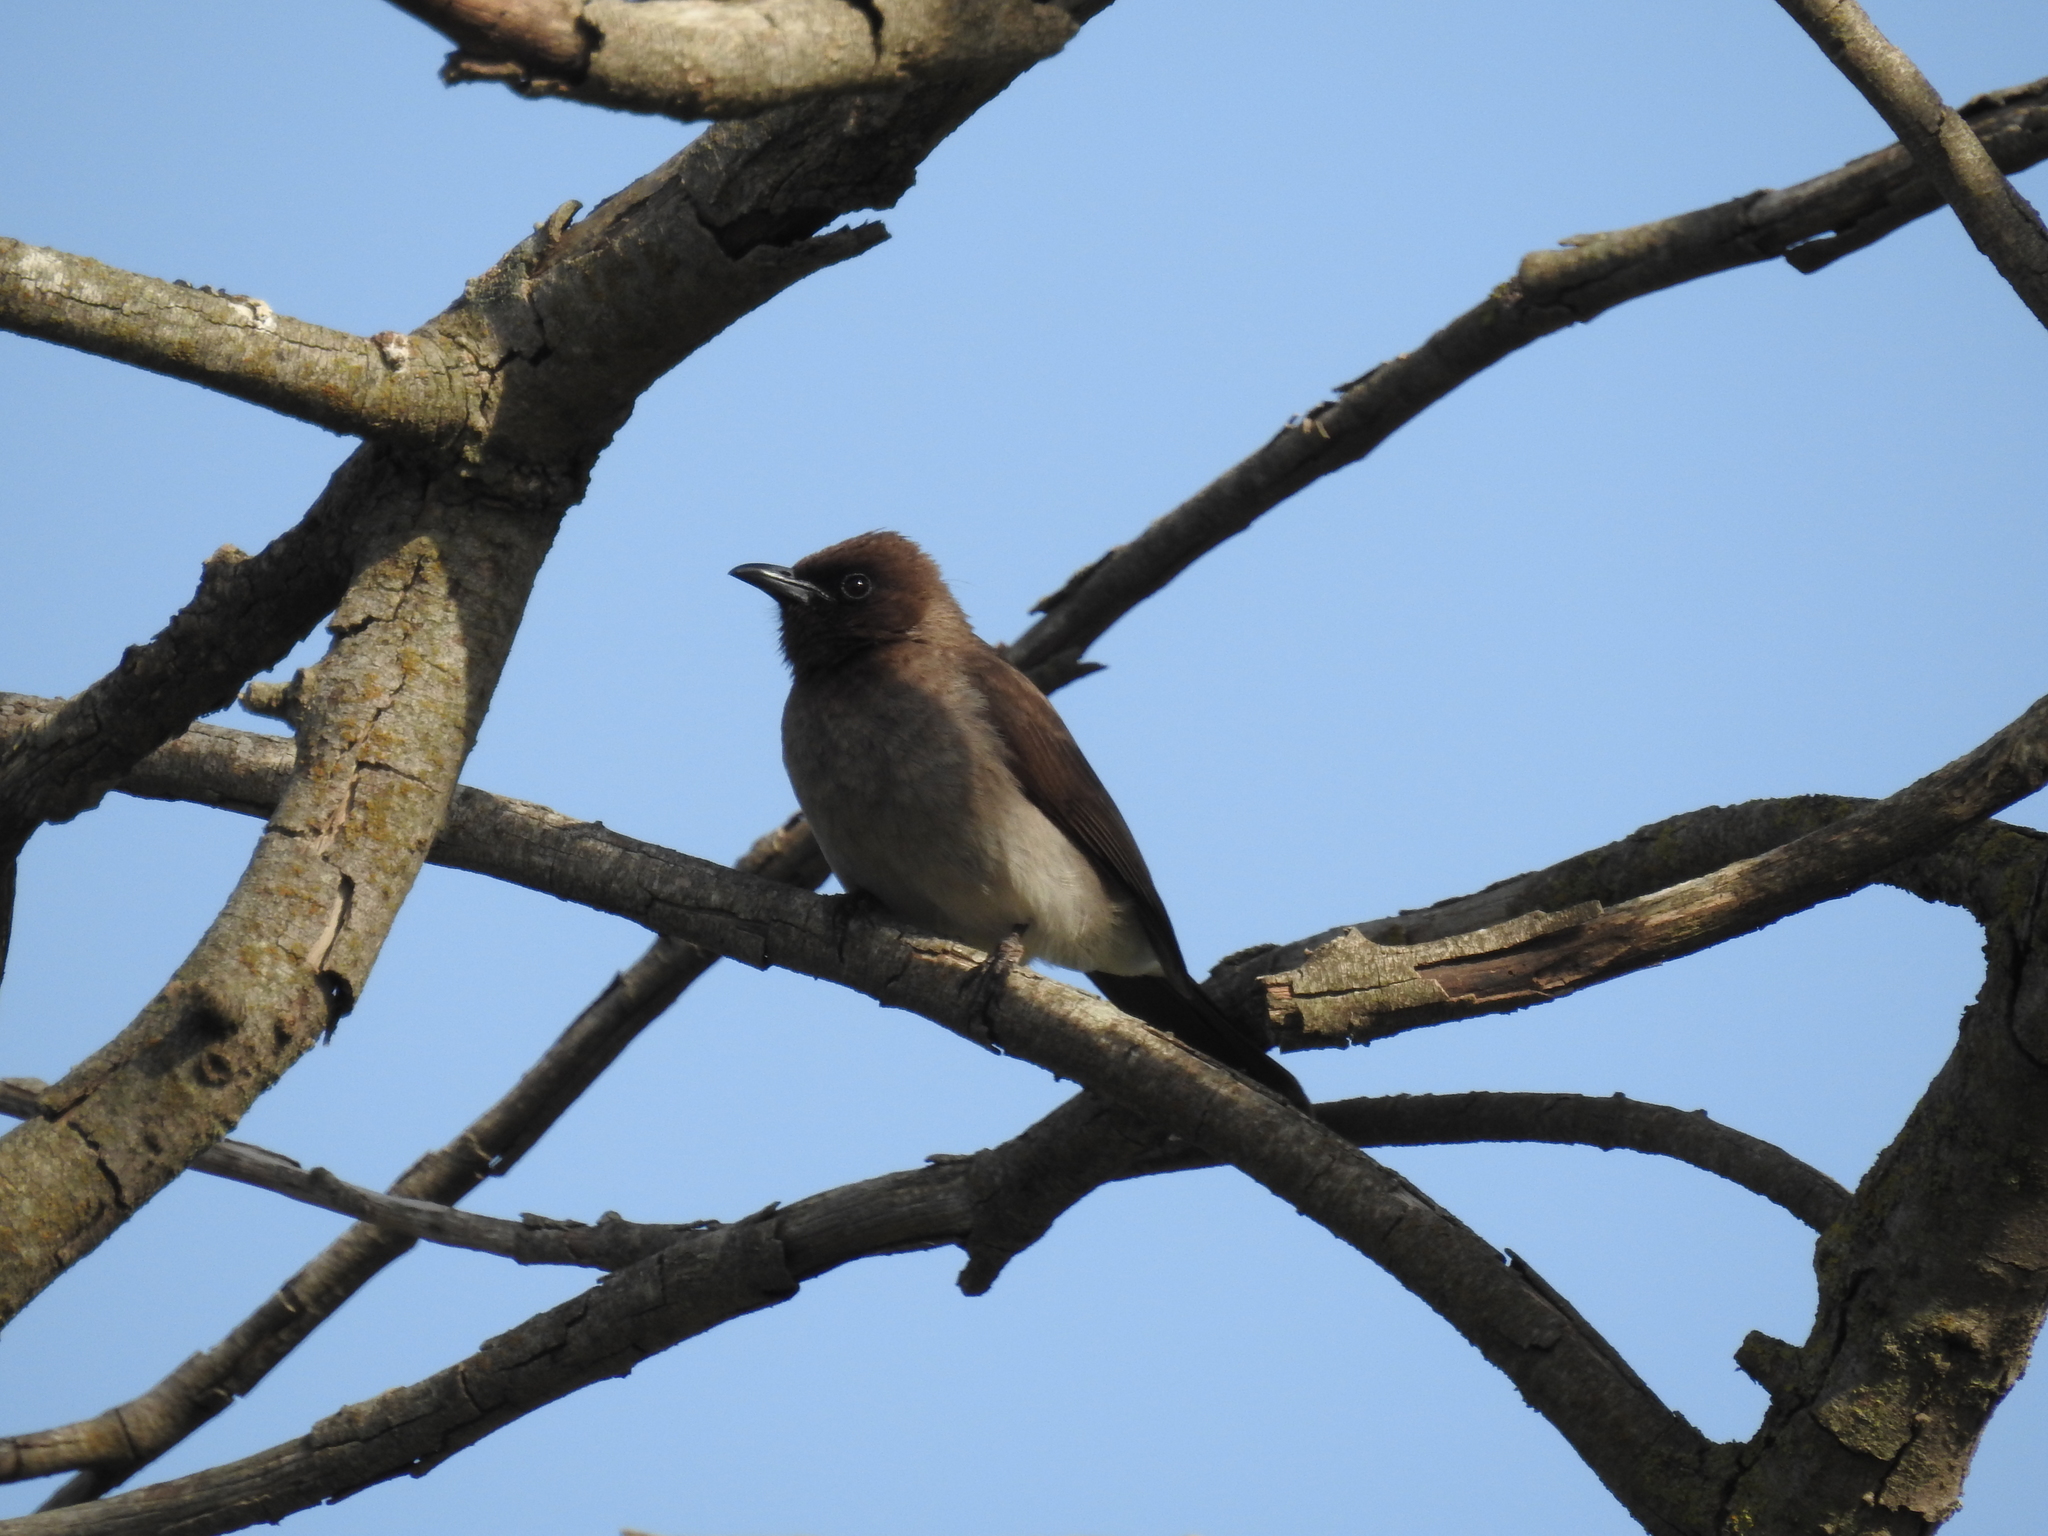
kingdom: Animalia
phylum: Chordata
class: Aves
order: Passeriformes
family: Pycnonotidae
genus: Pycnonotus
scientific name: Pycnonotus barbatus
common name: Common bulbul
